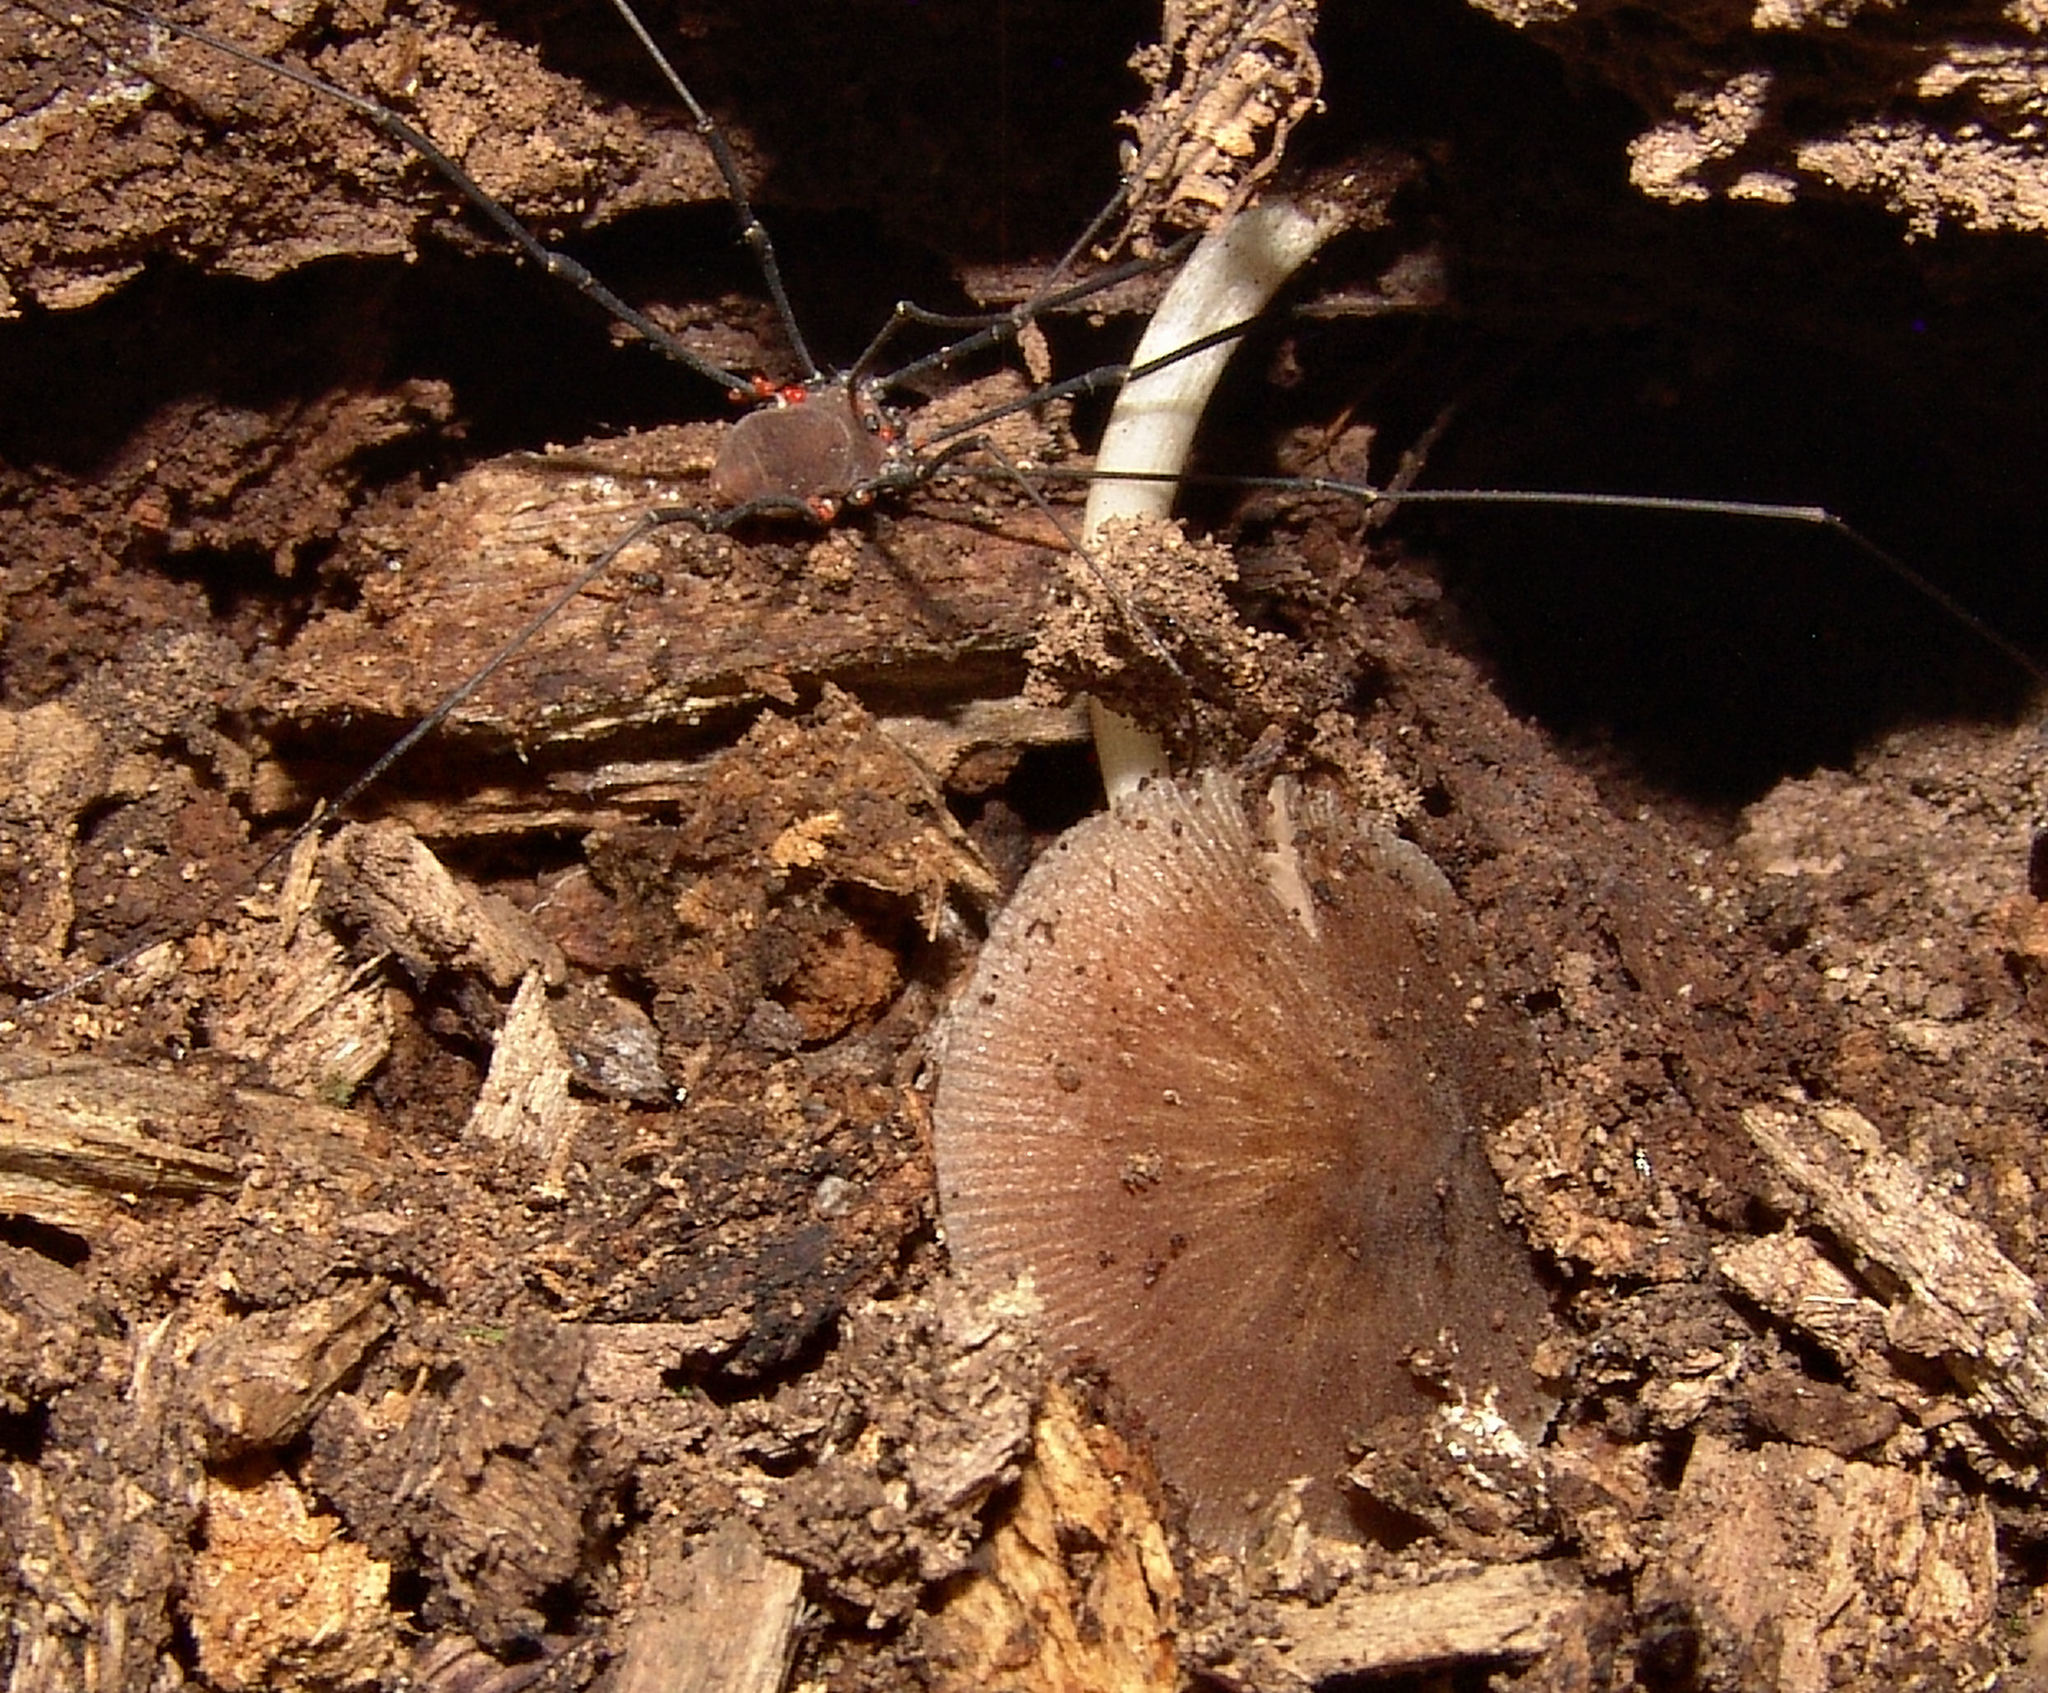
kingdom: Fungi
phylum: Basidiomycota
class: Agaricomycetes
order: Agaricales
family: Pluteaceae
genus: Pluteus
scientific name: Pluteus longistriatus
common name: Pleated pluteus
